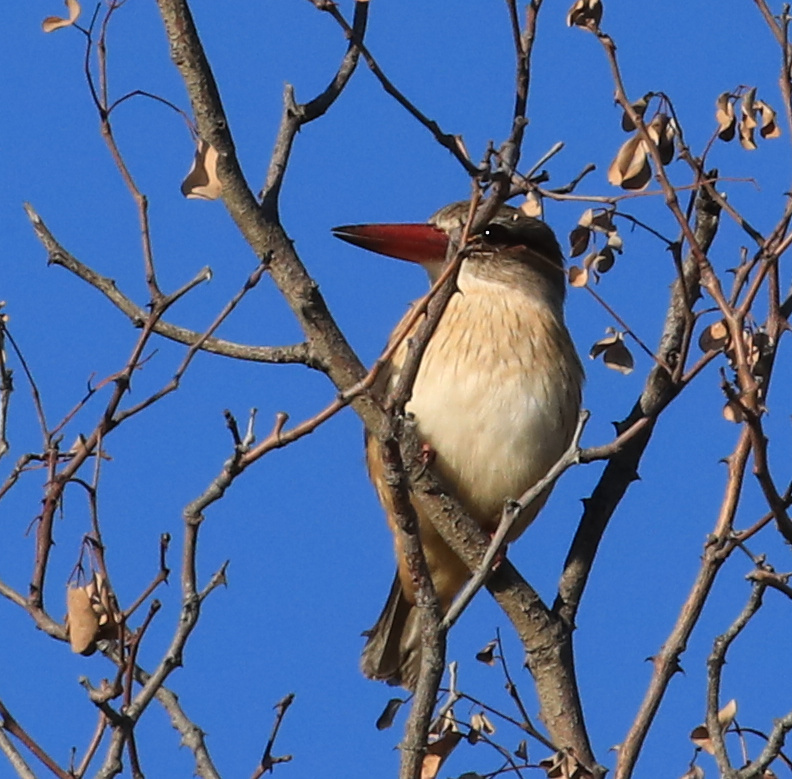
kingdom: Animalia
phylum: Chordata
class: Aves
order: Coraciiformes
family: Alcedinidae
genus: Halcyon
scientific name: Halcyon albiventris
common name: Brown-hooded kingfisher
